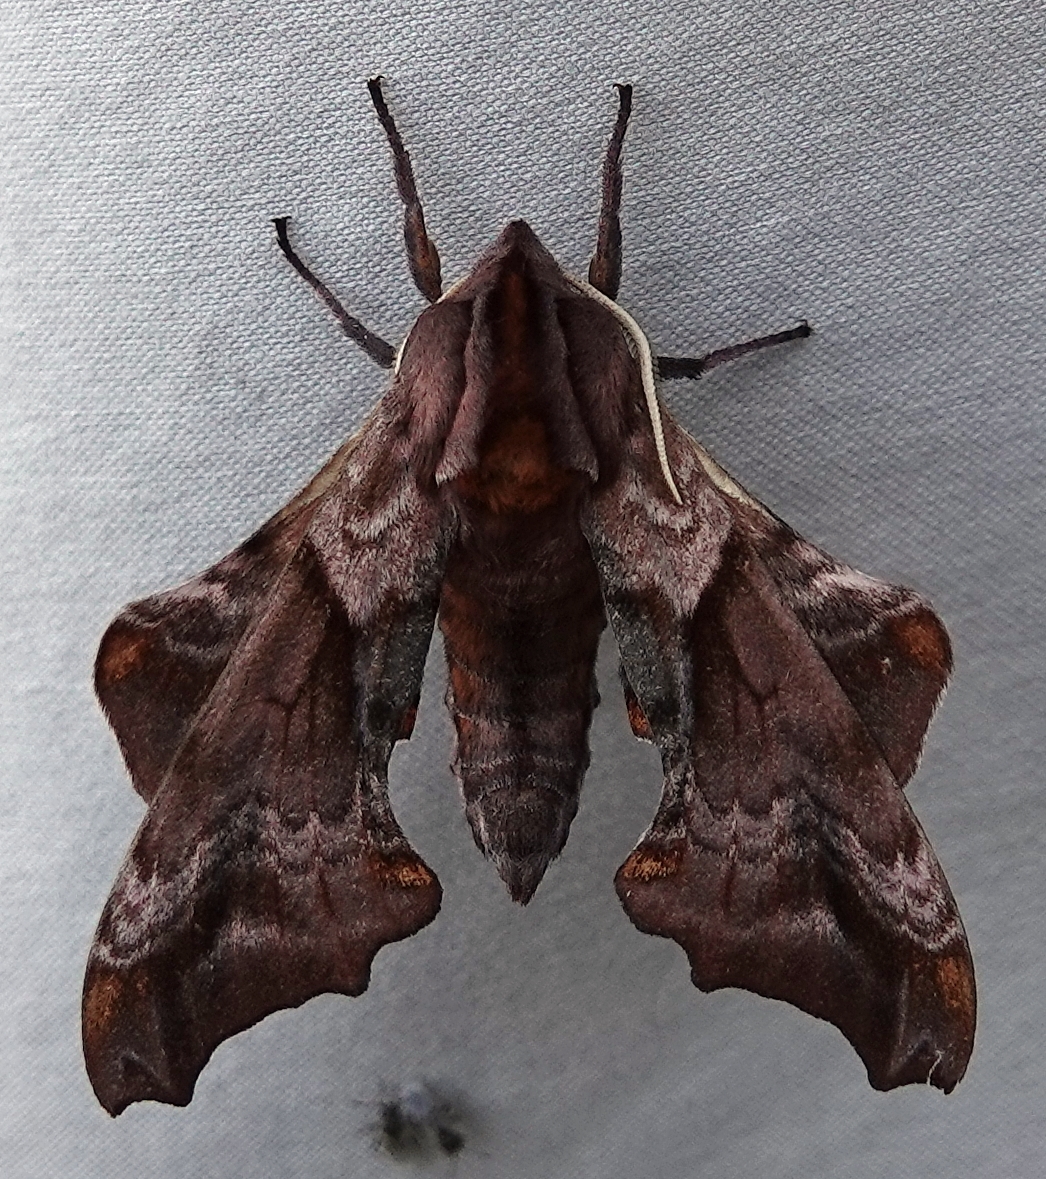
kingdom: Animalia
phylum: Arthropoda
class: Insecta
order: Lepidoptera
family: Sphingidae
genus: Paonias
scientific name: Paonias myops
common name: Small-eyed sphinx
